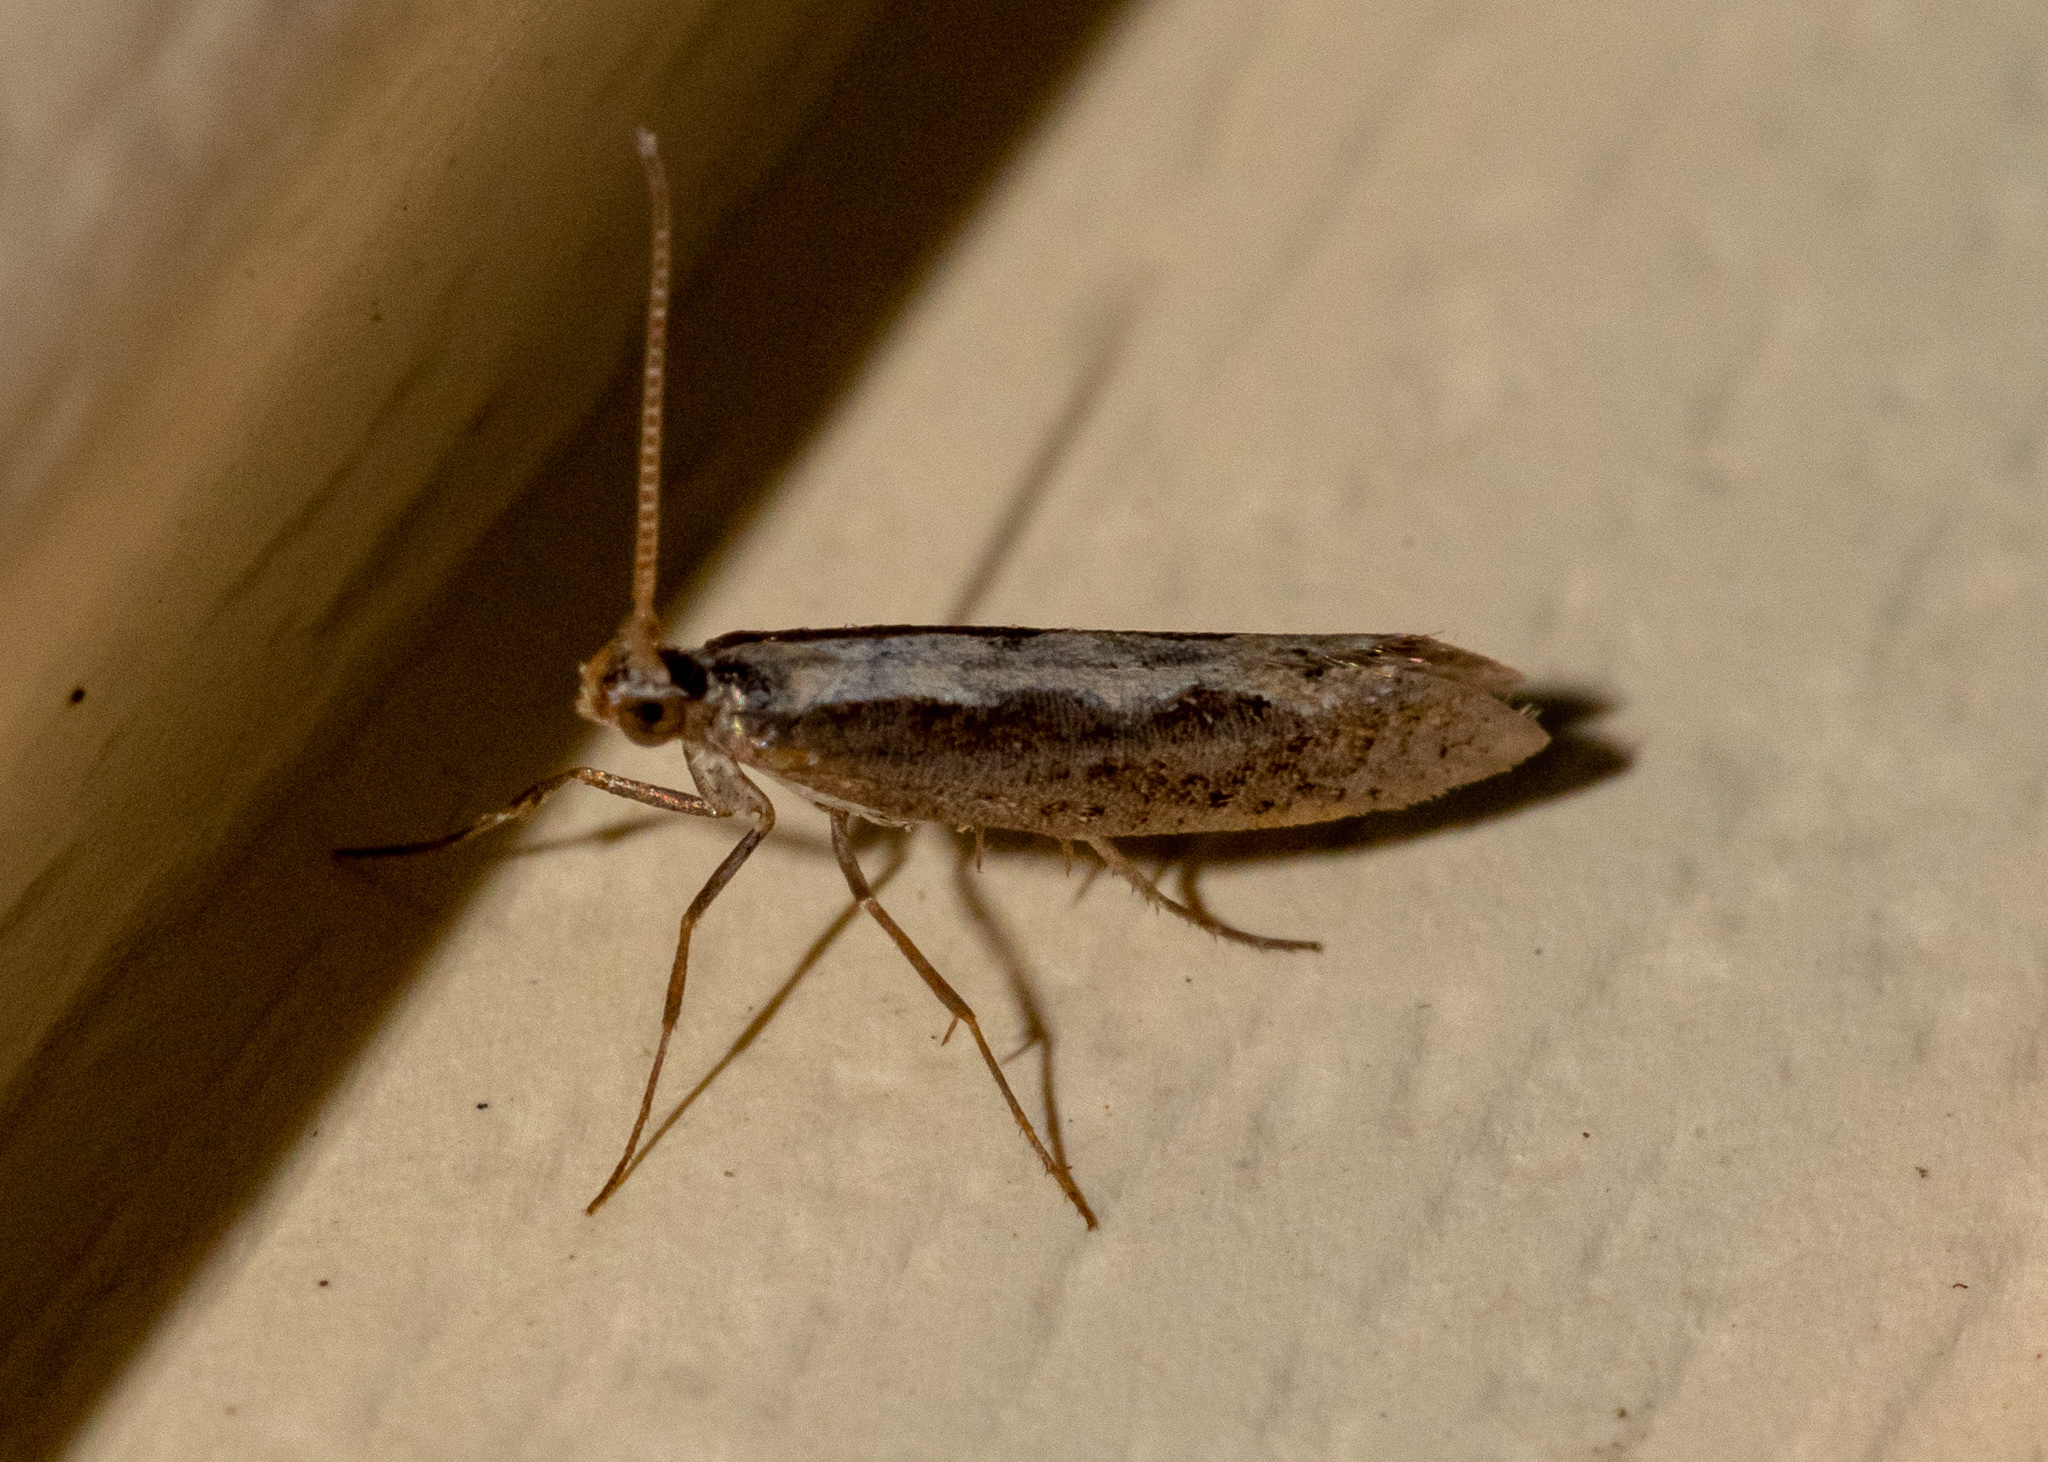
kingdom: Animalia
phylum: Arthropoda
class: Insecta
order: Lepidoptera
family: Plutellidae
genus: Plutella
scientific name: Plutella xylostella
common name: Diamond-back moth
